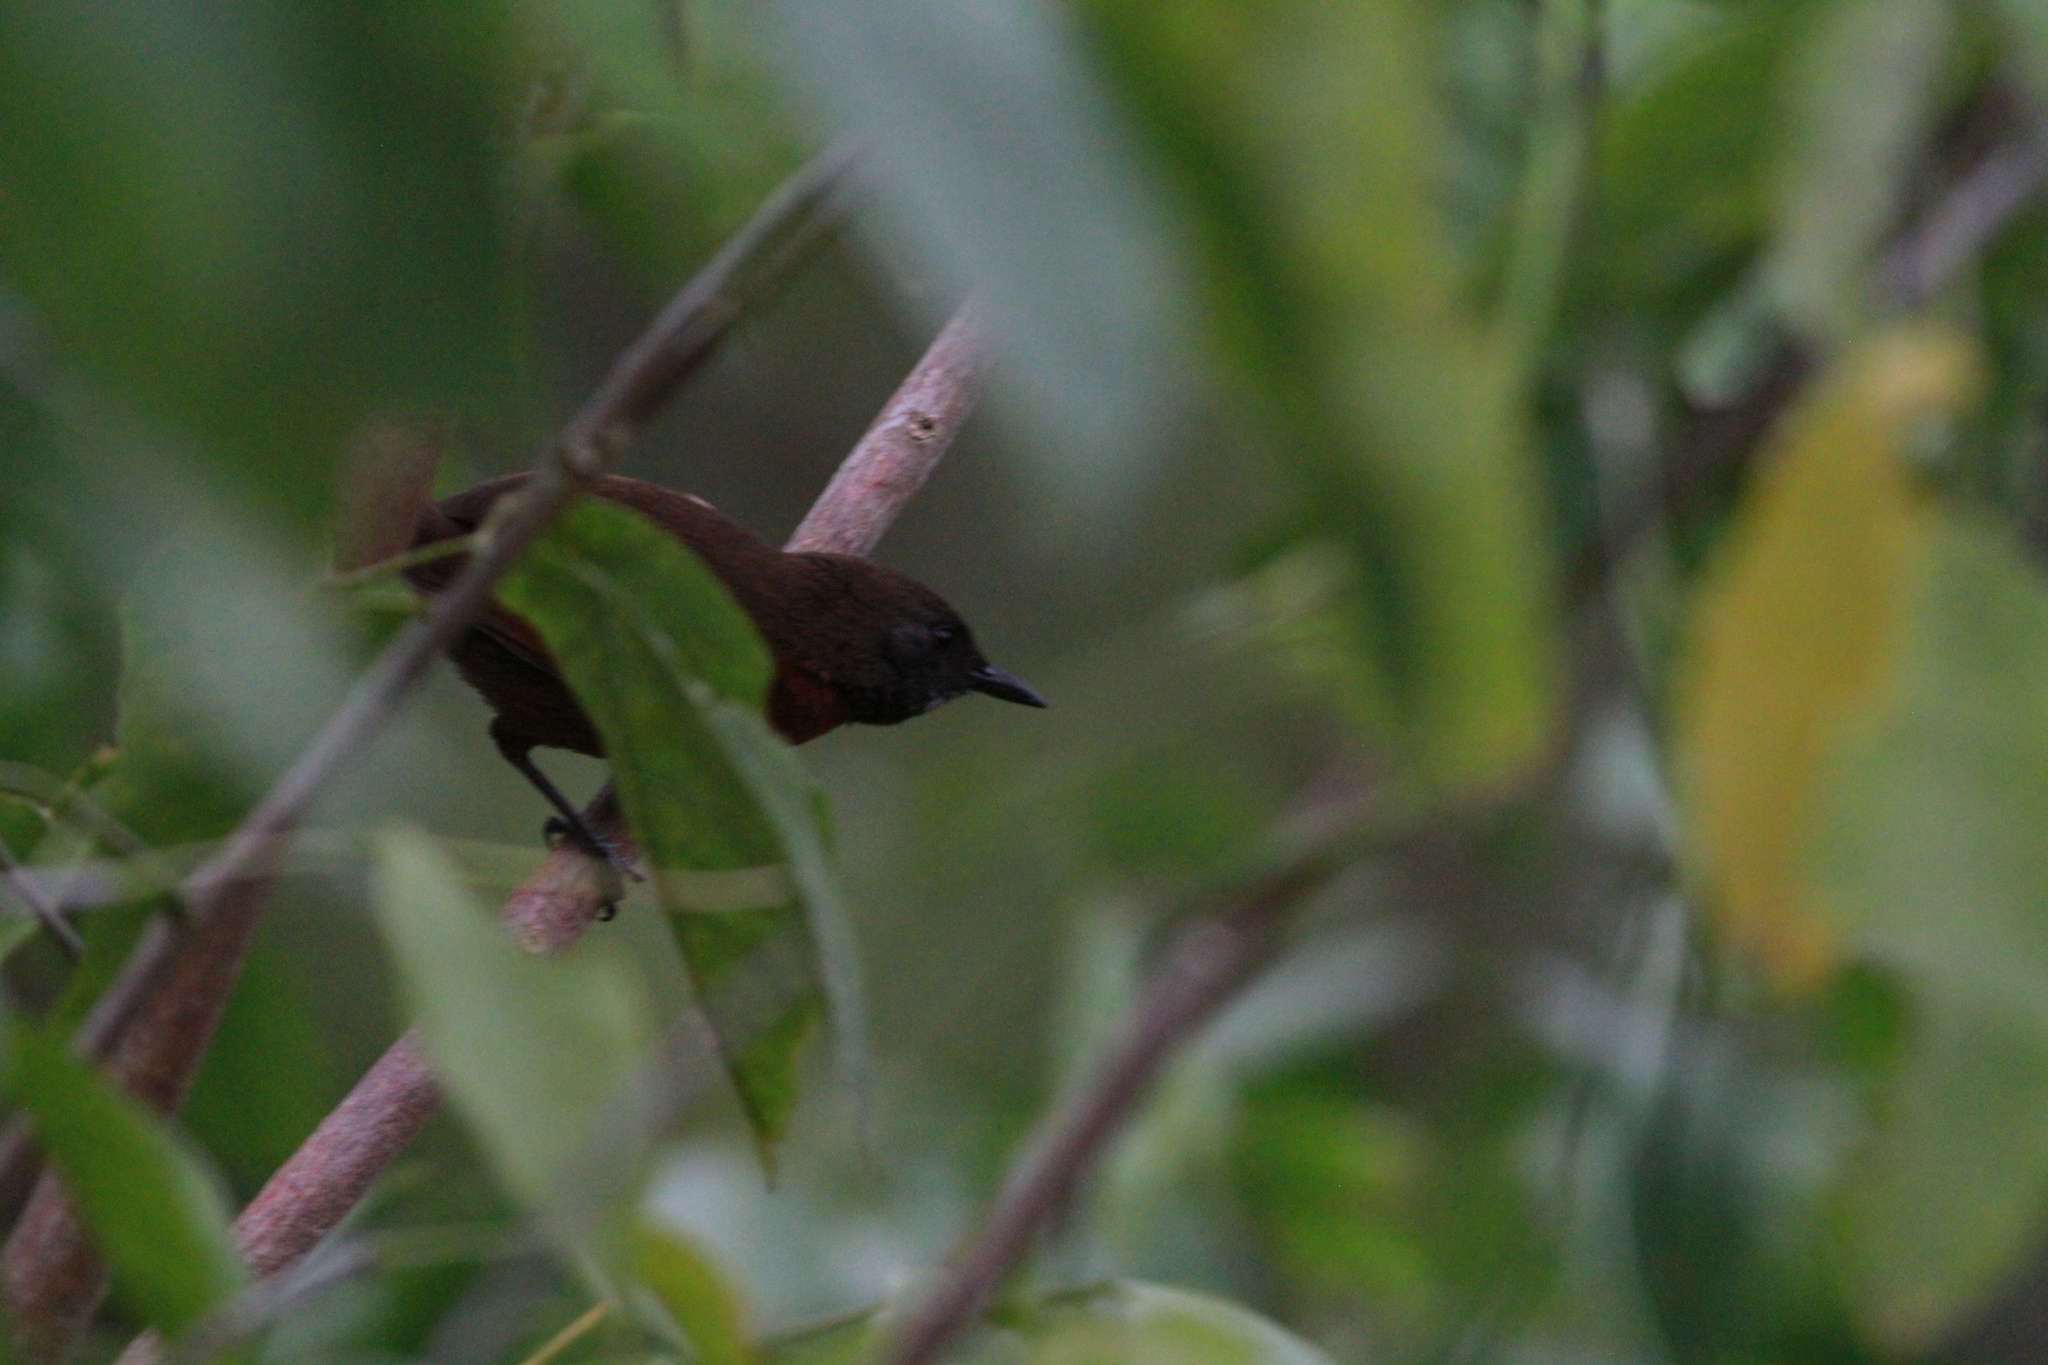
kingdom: Animalia
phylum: Chordata
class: Aves
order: Passeriformes
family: Furnariidae
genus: Synallaxis
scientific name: Synallaxis erythrothorax
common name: Rufous-breasted spinetail
